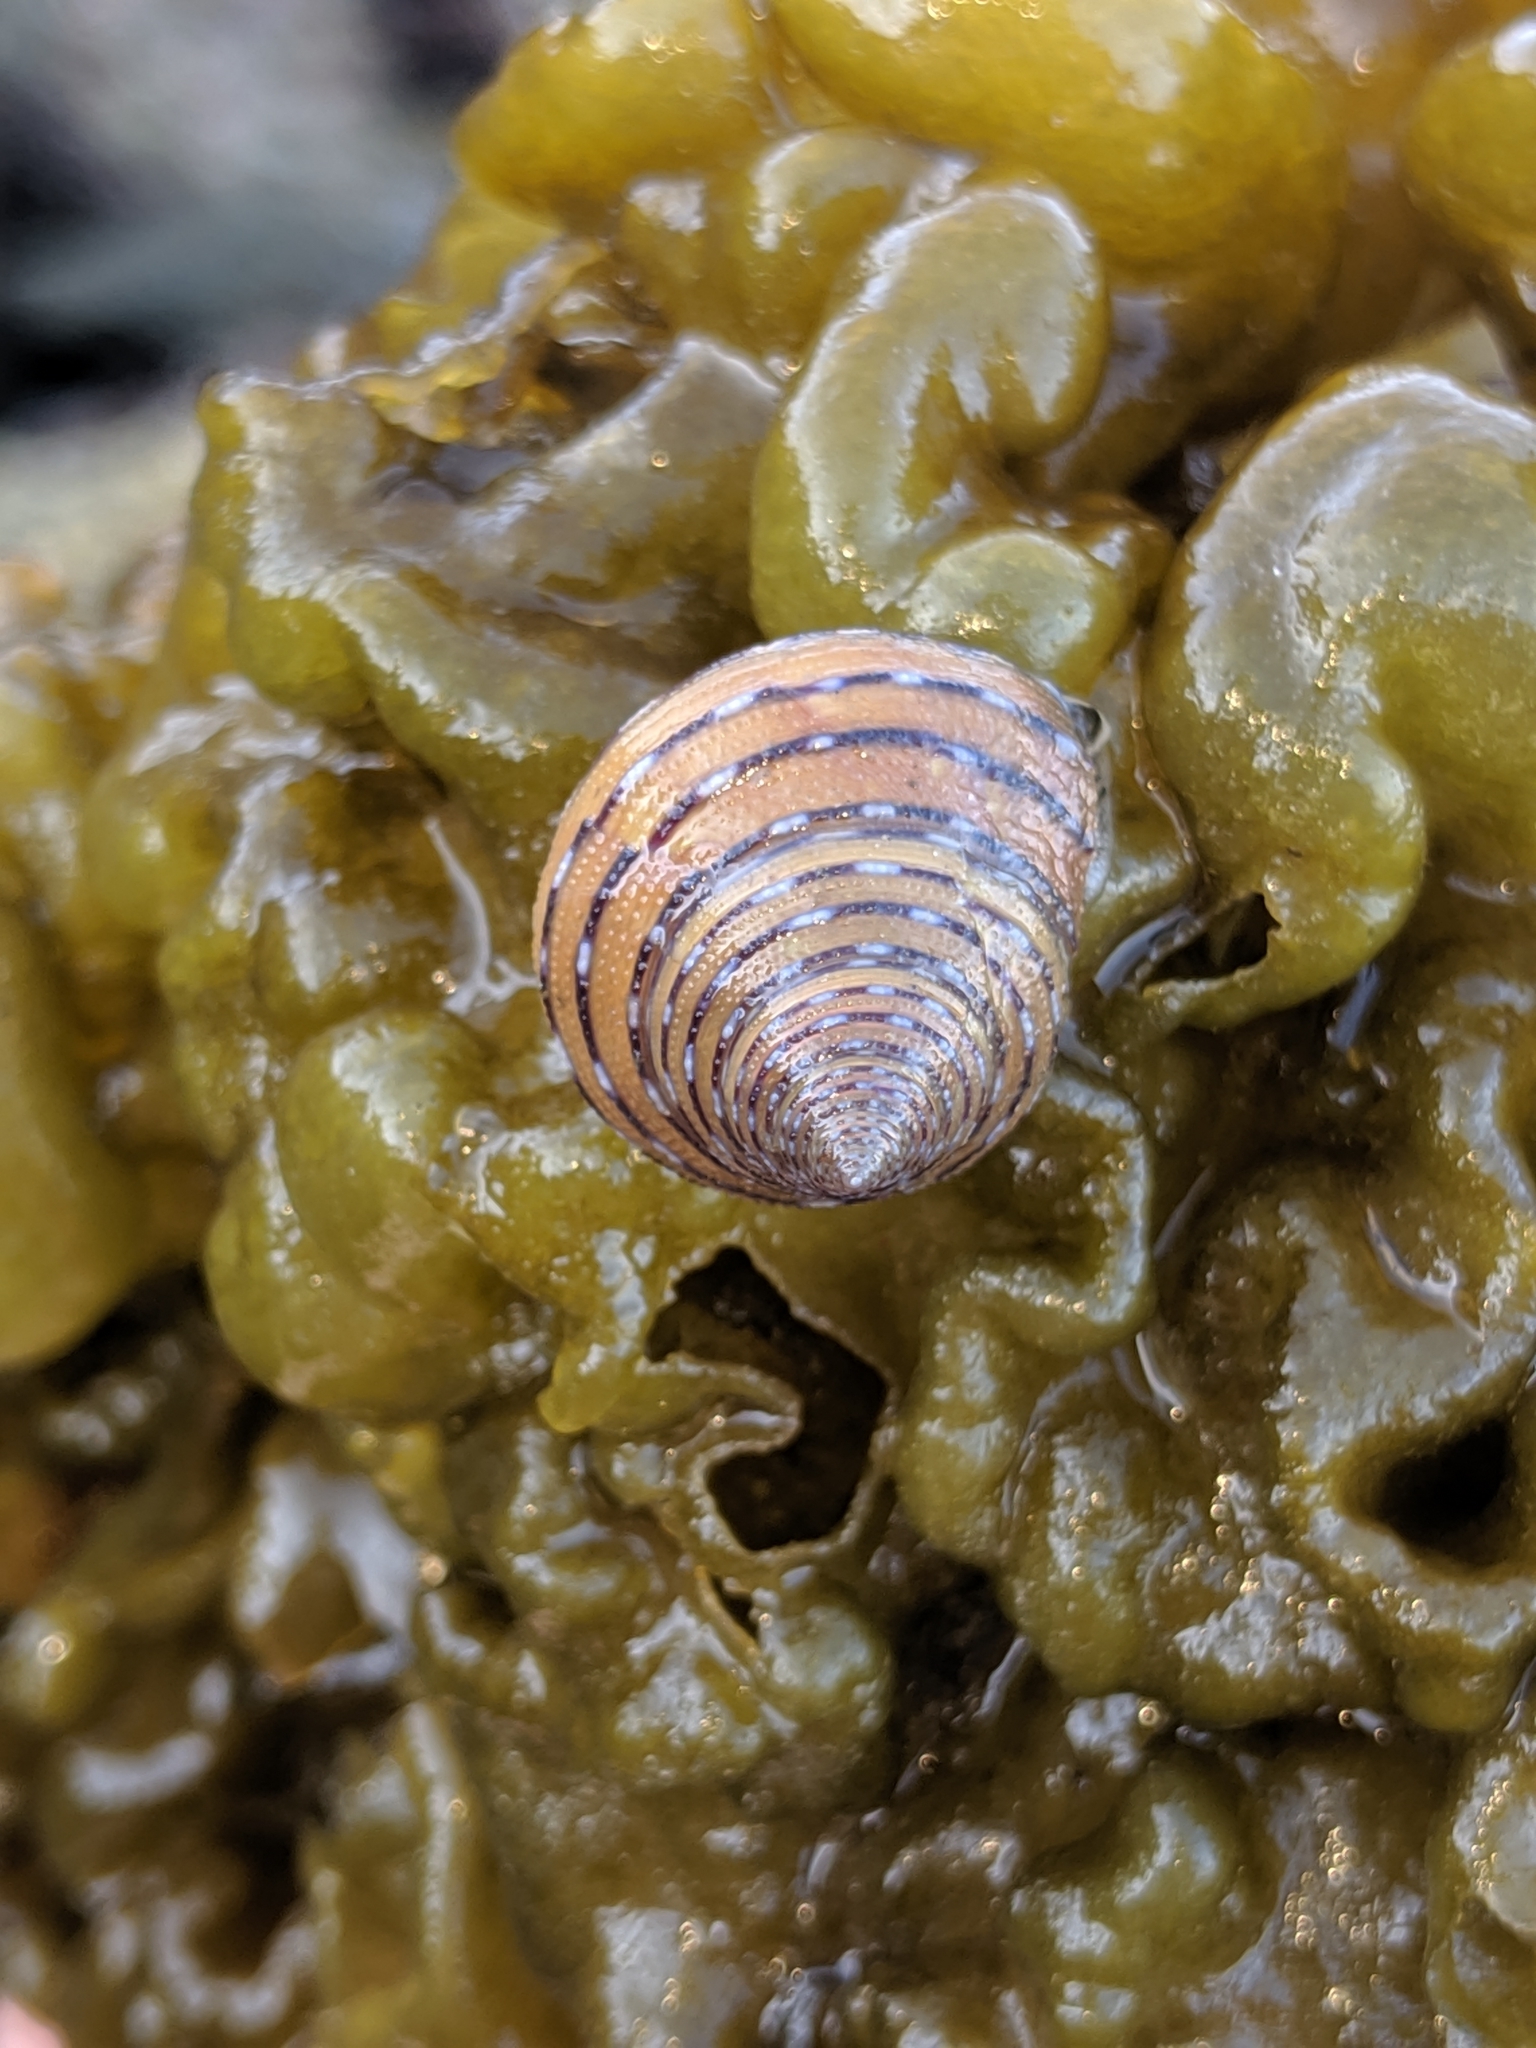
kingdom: Animalia
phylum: Mollusca
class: Gastropoda
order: Trochida
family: Calliostomatidae
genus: Calliostoma
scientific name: Calliostoma tricolor
